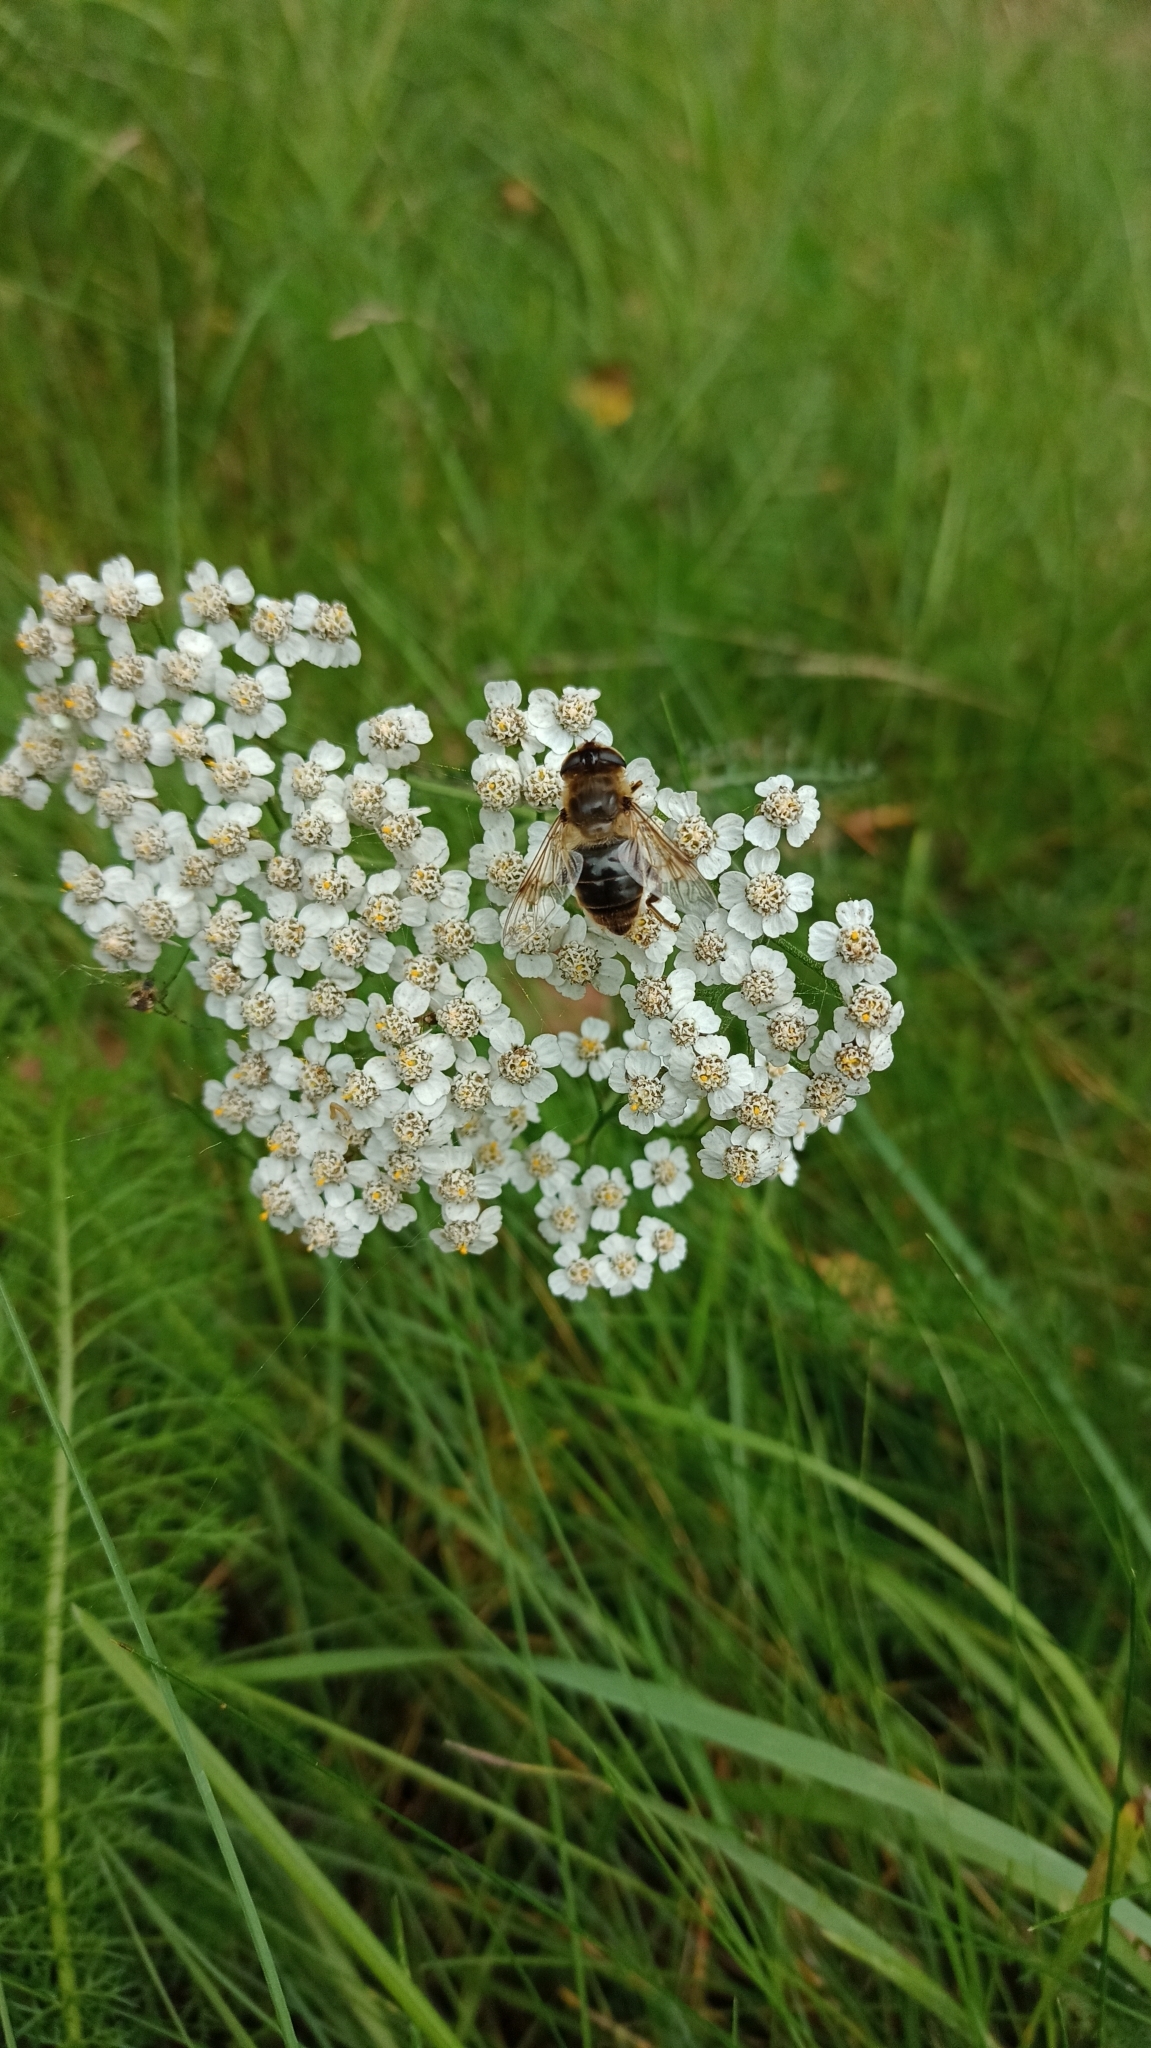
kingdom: Animalia
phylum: Arthropoda
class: Insecta
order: Diptera
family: Syrphidae
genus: Eristalis
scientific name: Eristalis tenax
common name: Drone fly
